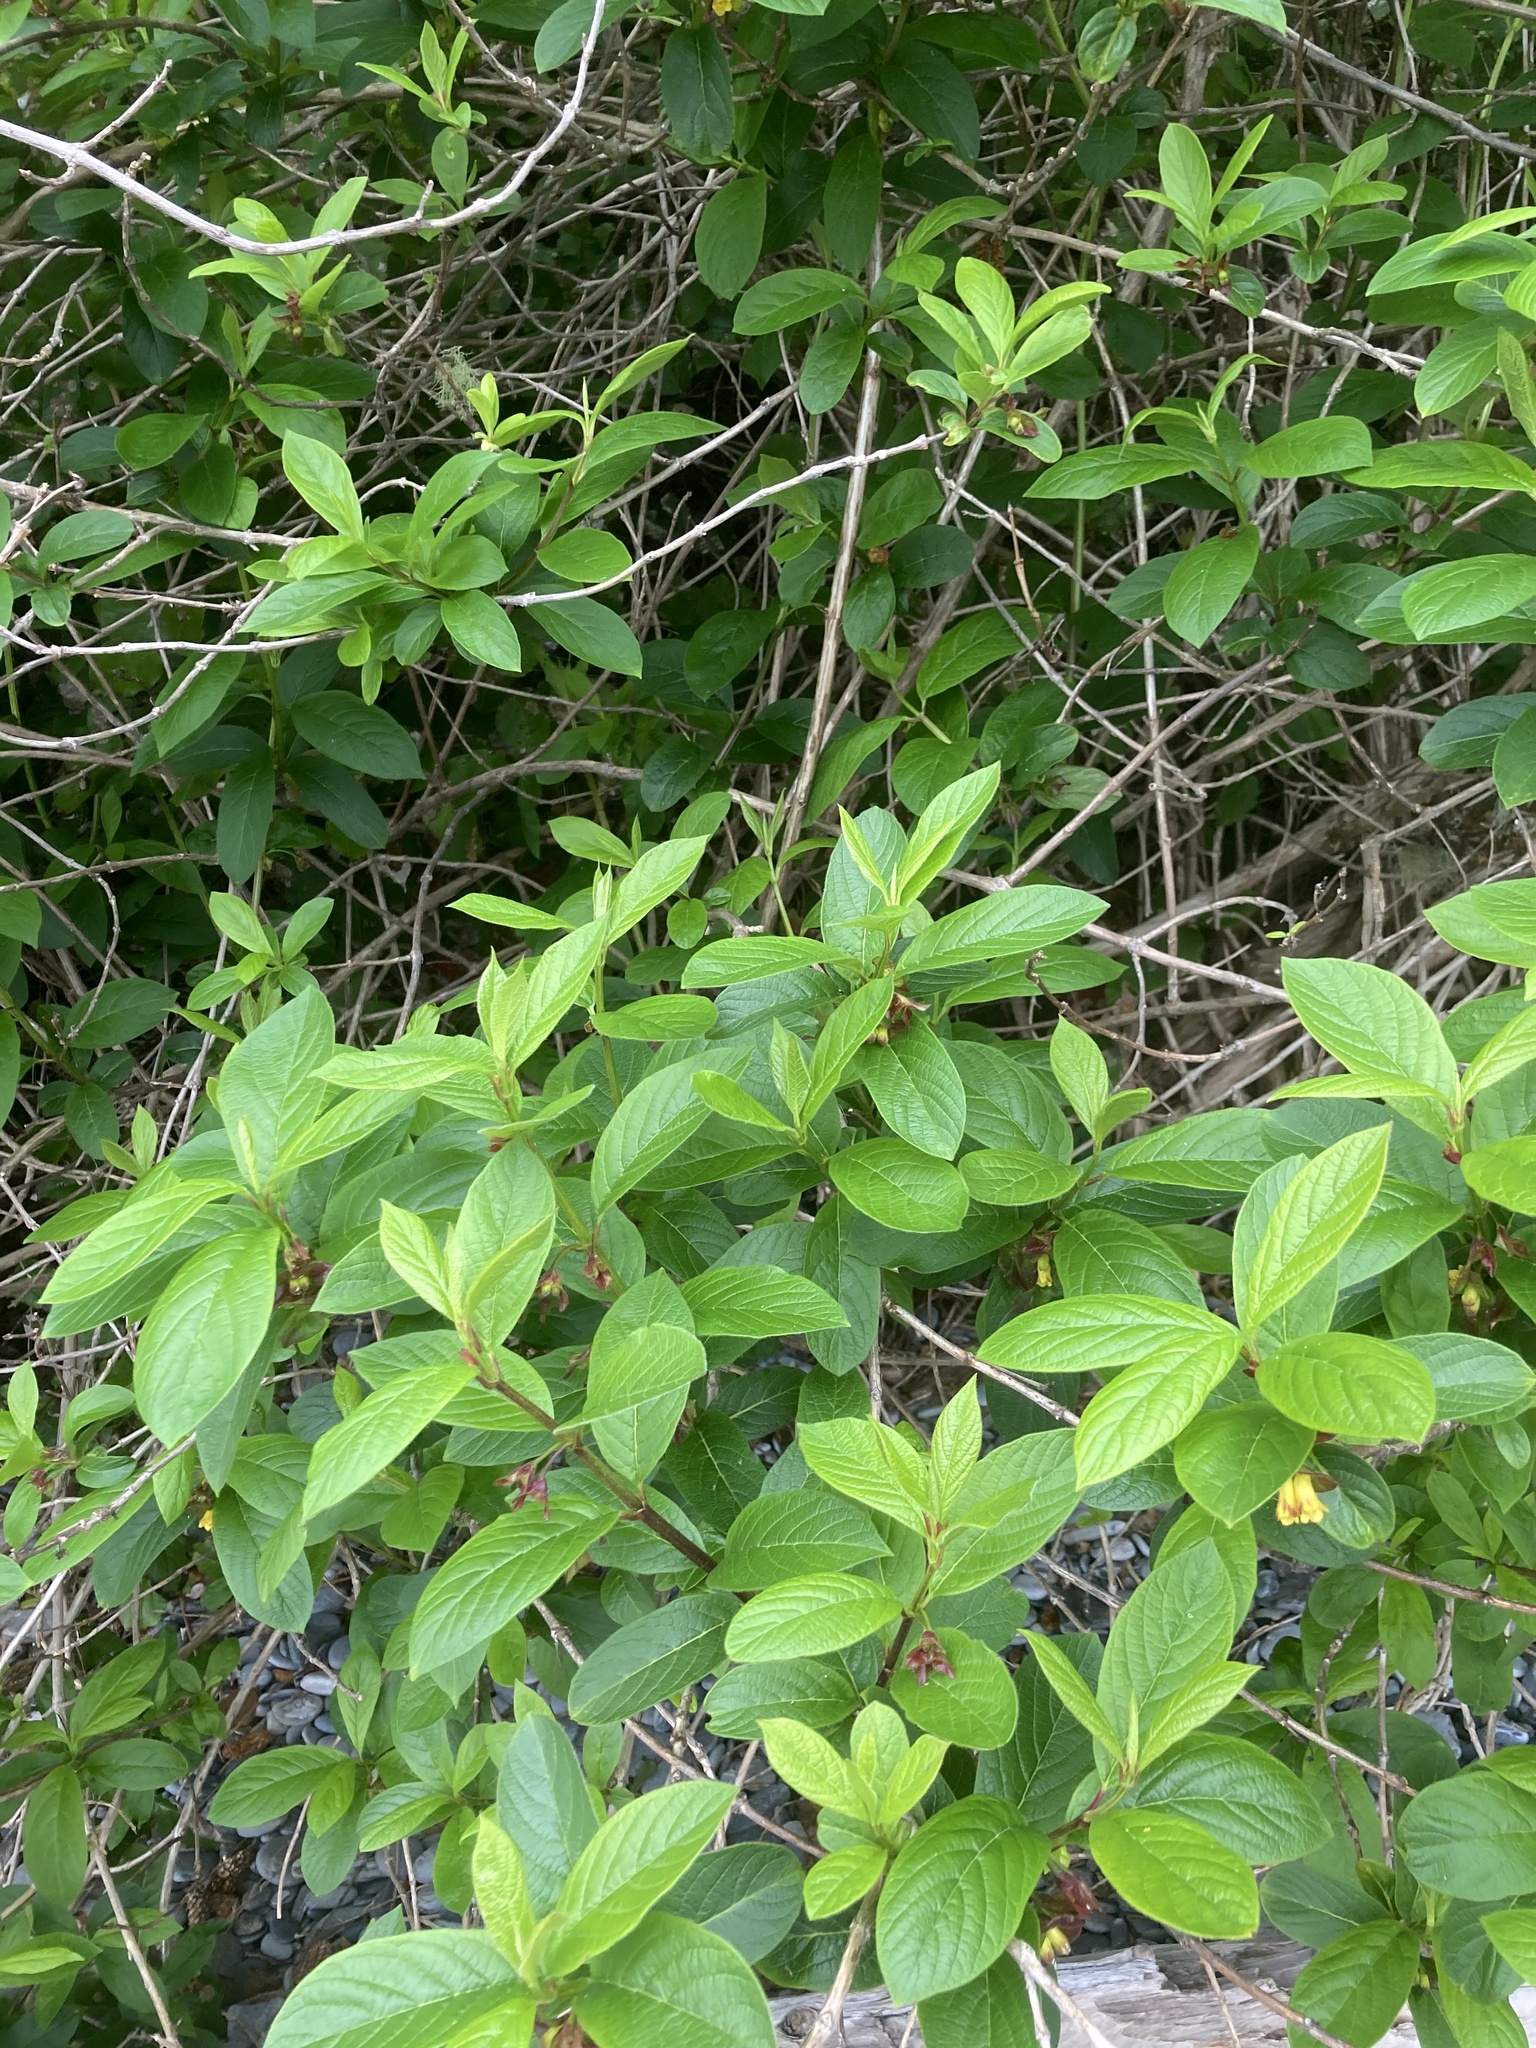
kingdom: Plantae
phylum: Tracheophyta
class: Magnoliopsida
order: Dipsacales
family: Caprifoliaceae
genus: Lonicera
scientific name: Lonicera involucrata
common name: Californian honeysuckle
